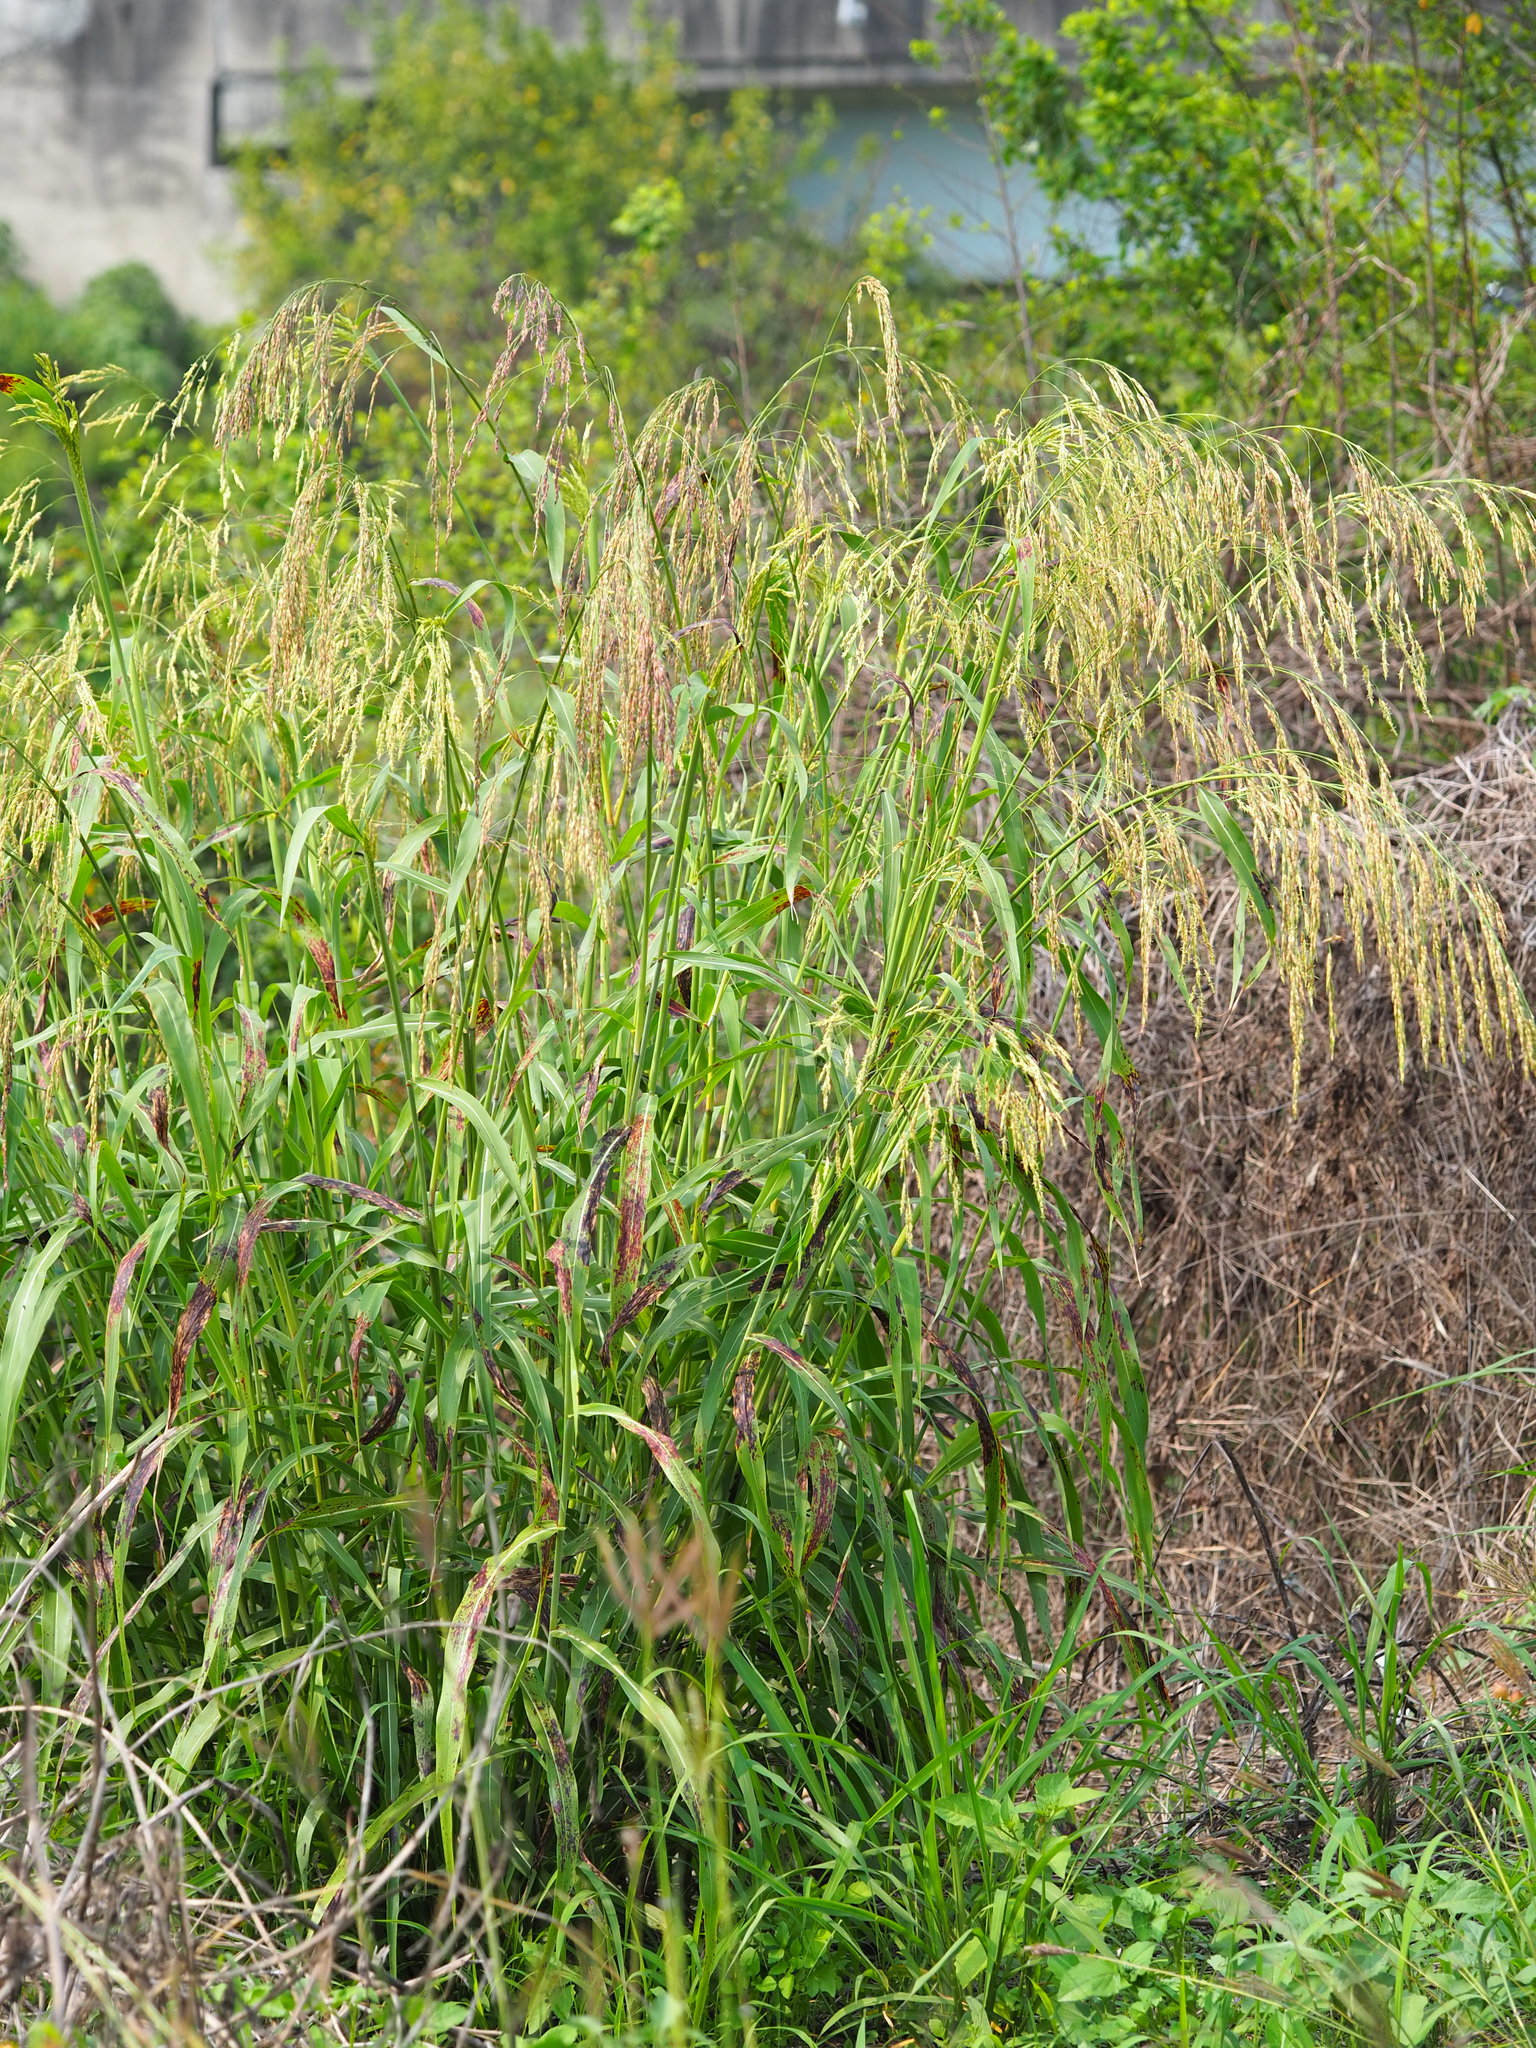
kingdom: Plantae
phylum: Tracheophyta
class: Liliopsida
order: Poales
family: Poaceae
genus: Sorghum
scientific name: Sorghum arundinaceum
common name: Sorghum
